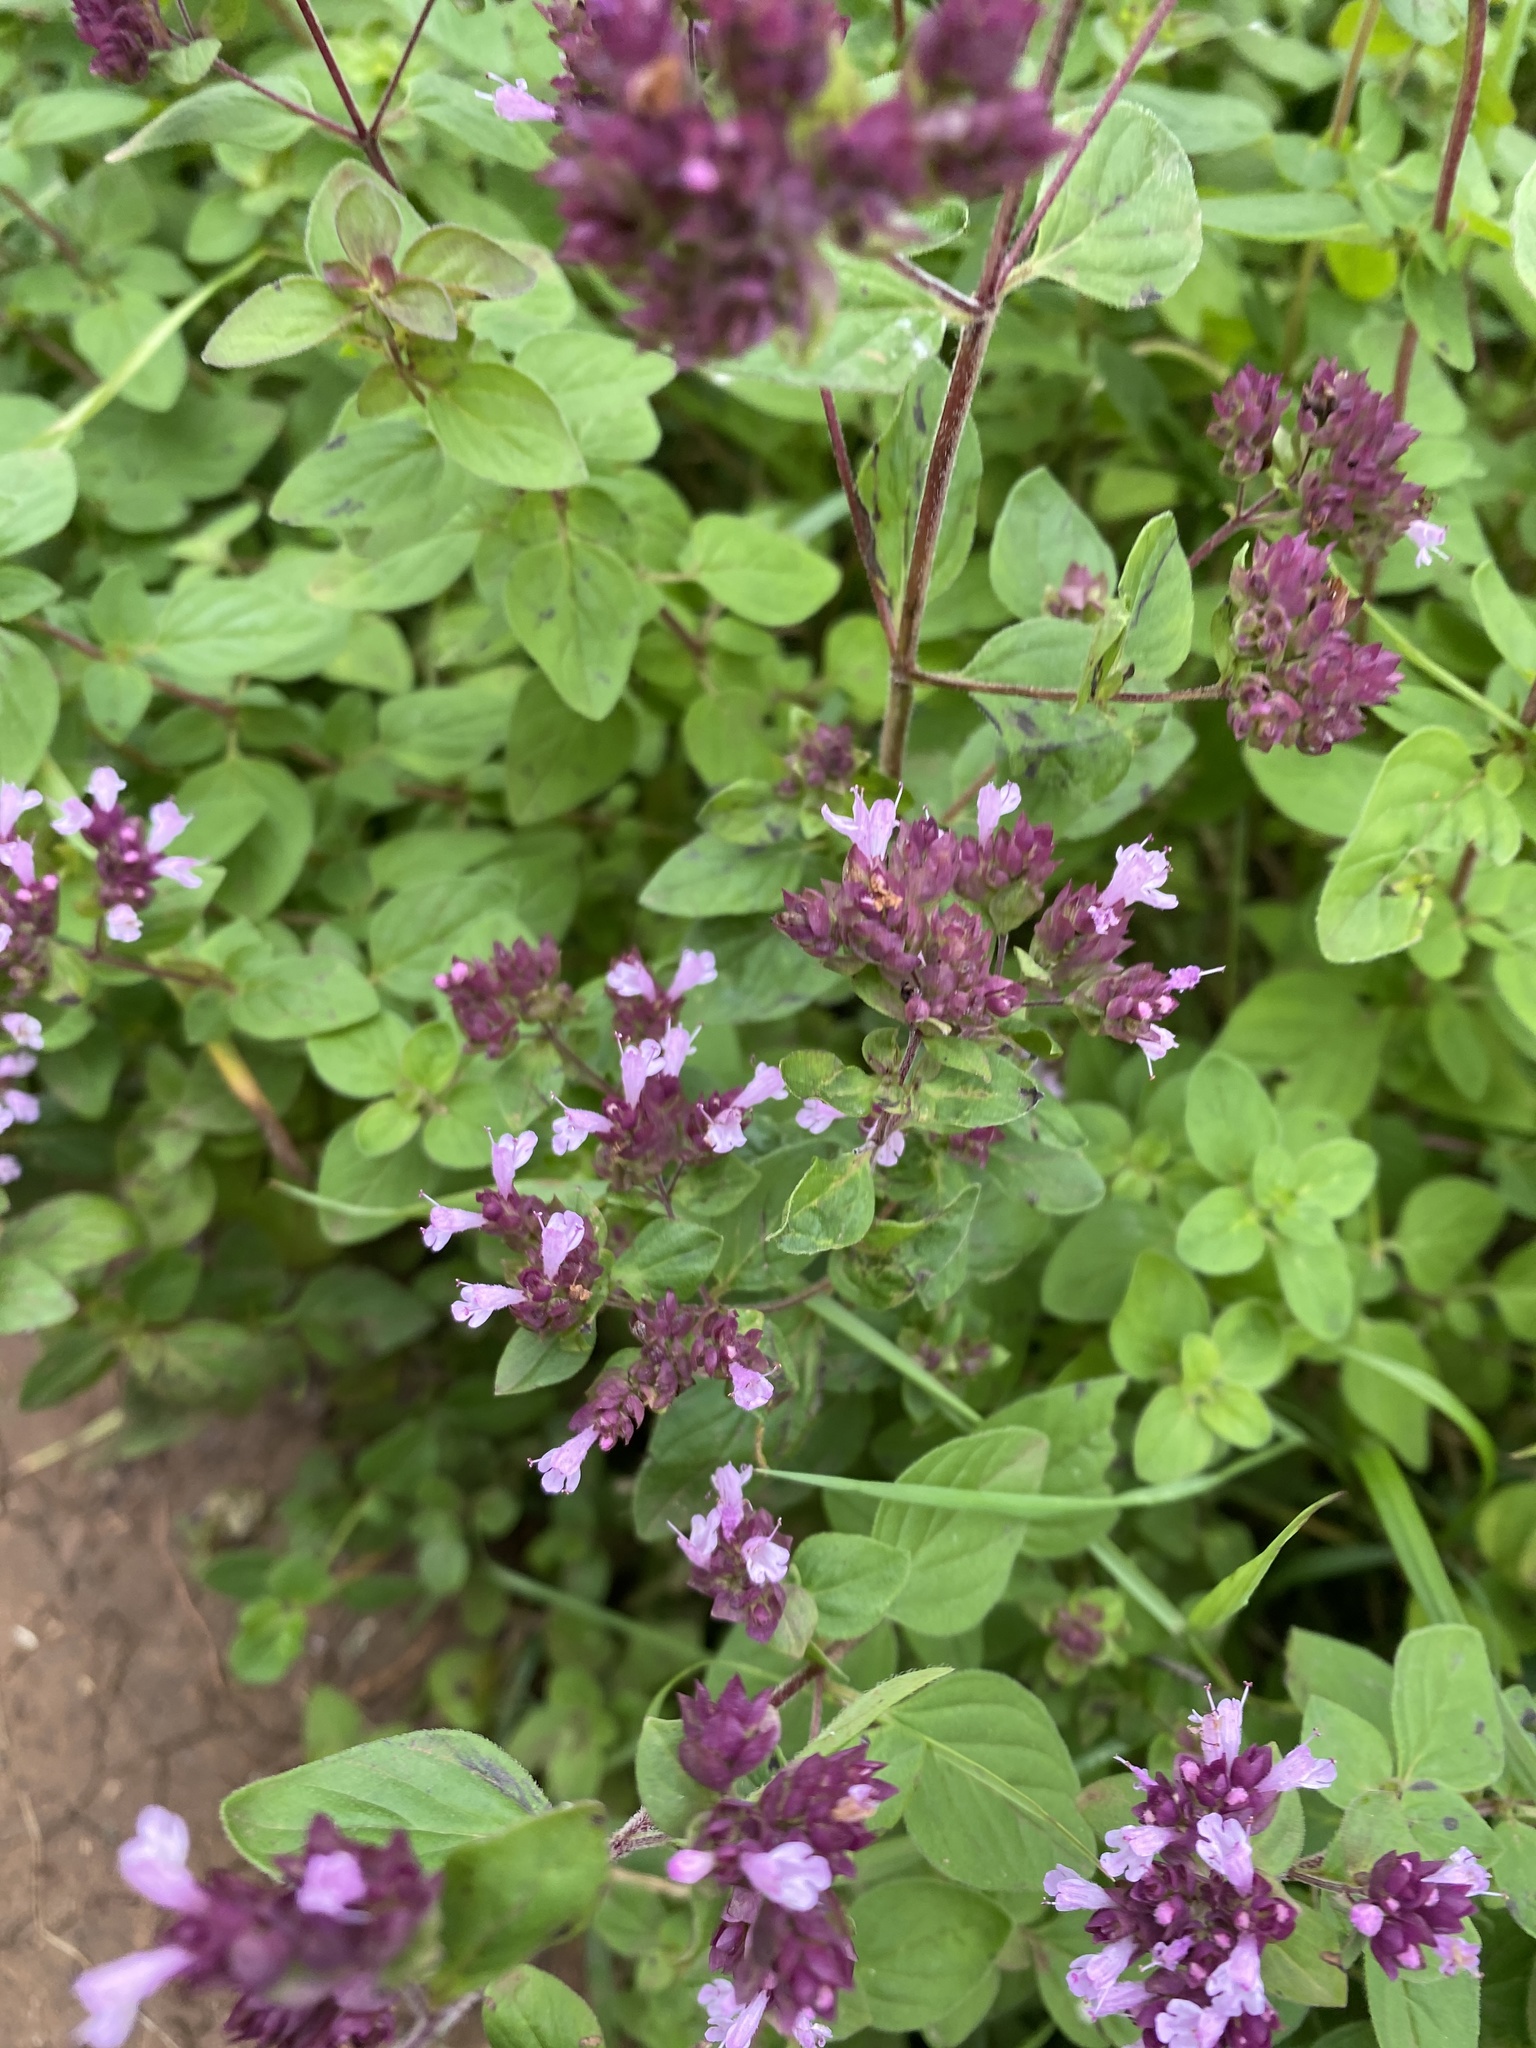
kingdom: Plantae
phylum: Tracheophyta
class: Magnoliopsida
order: Lamiales
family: Lamiaceae
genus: Origanum
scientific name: Origanum vulgare
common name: Wild marjoram
